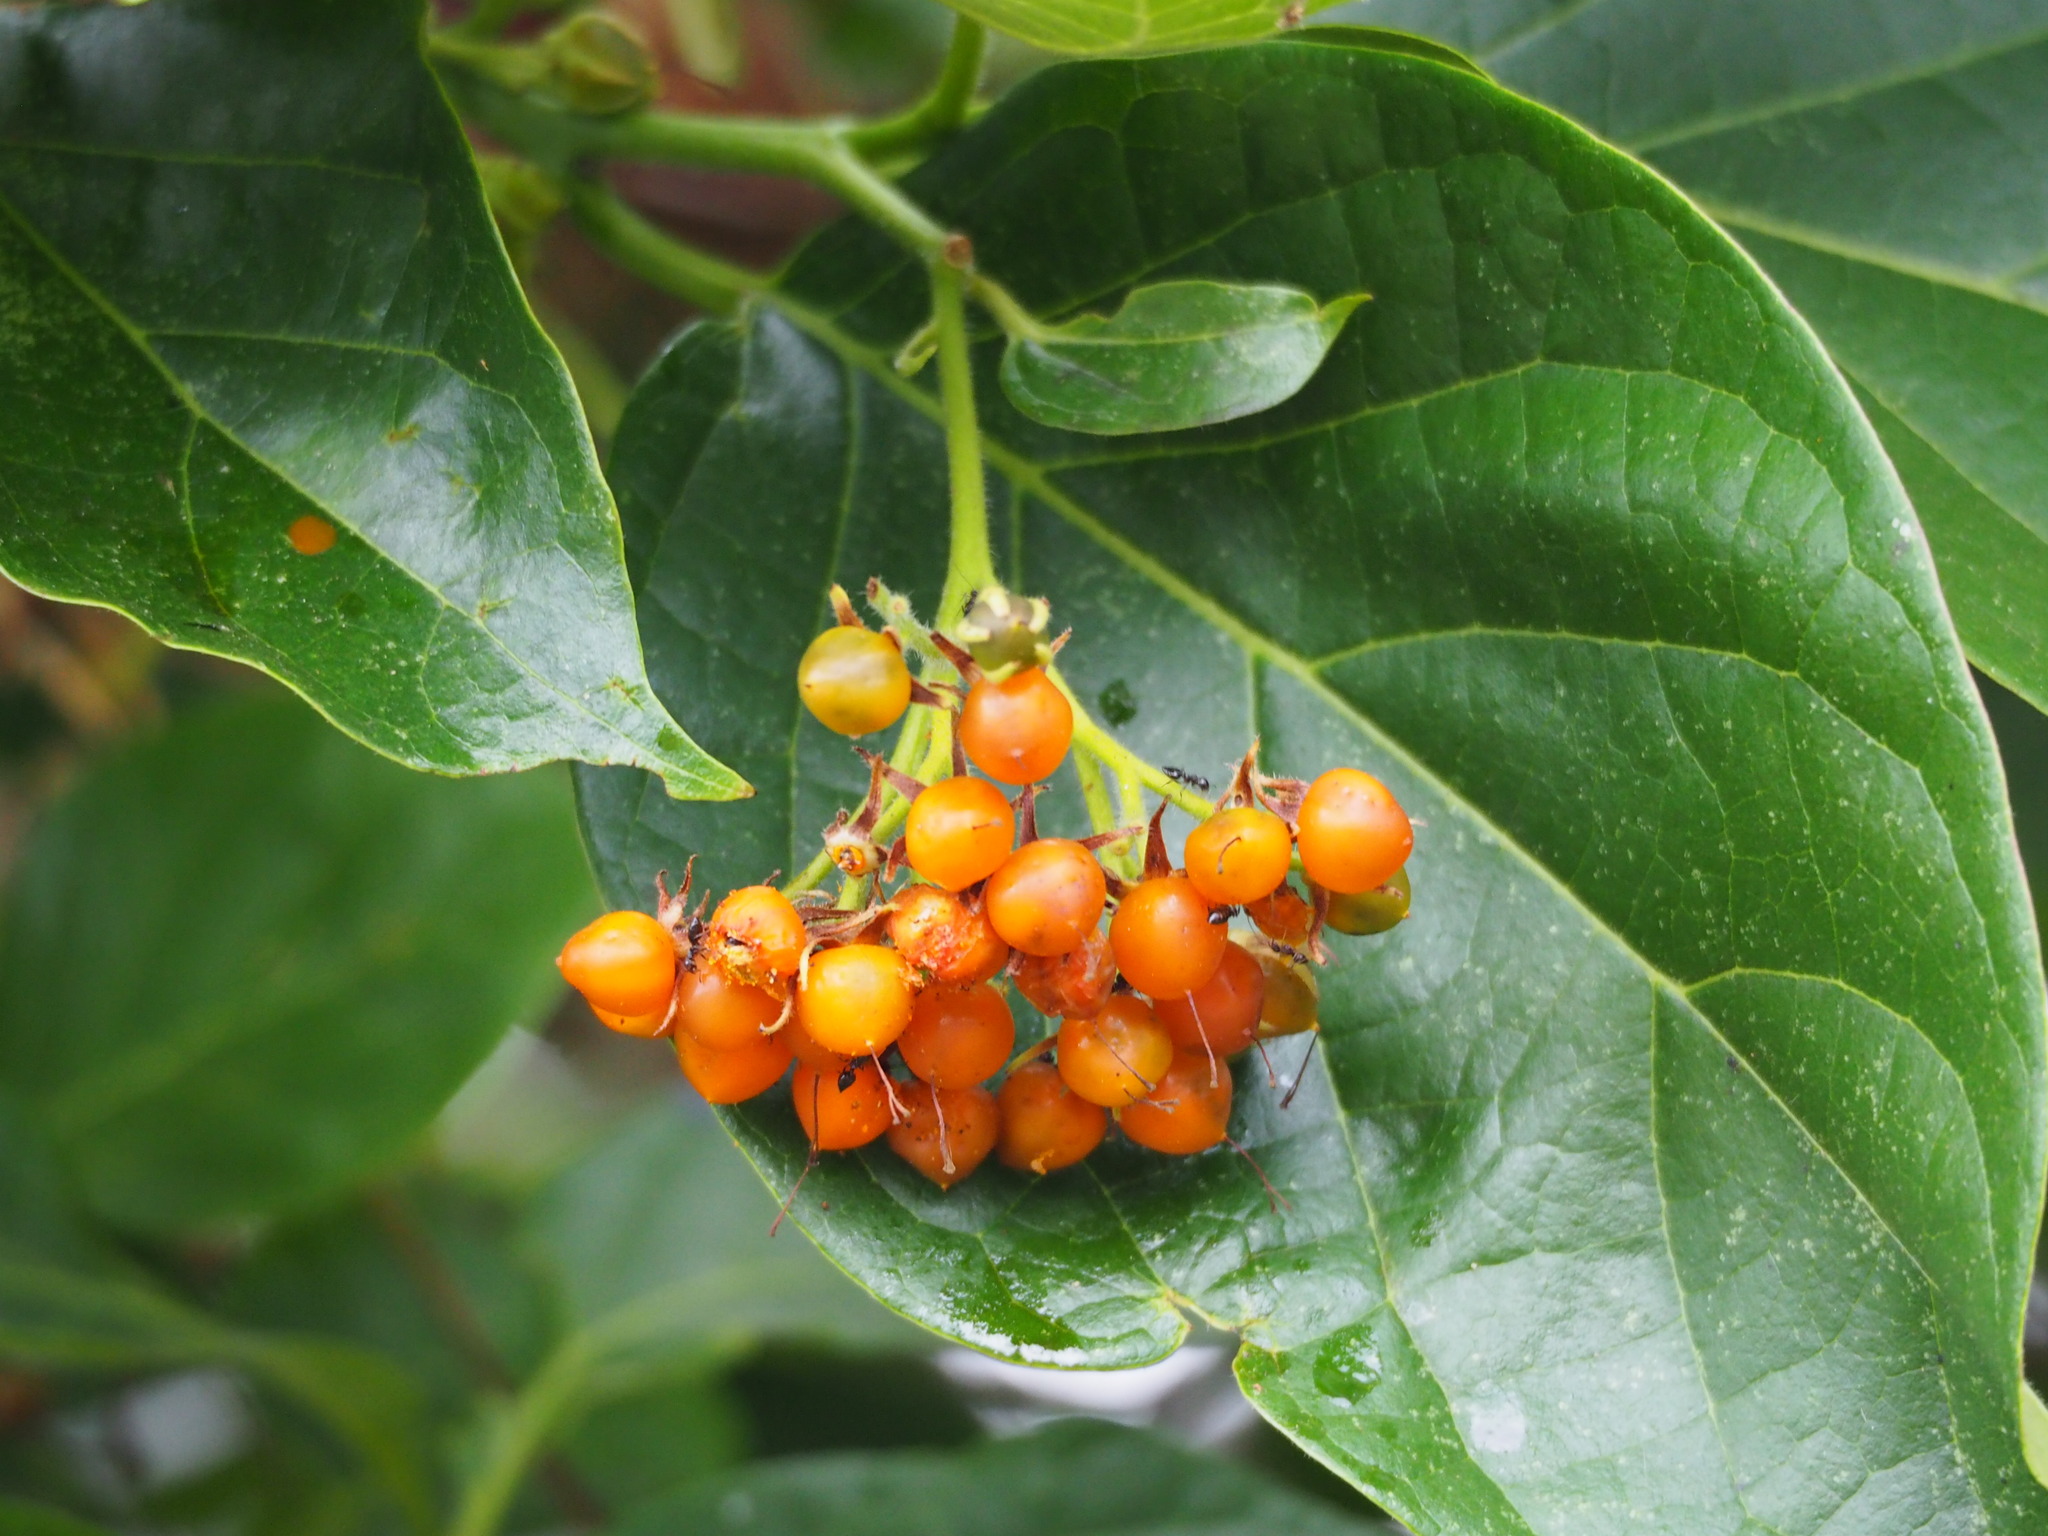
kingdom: Plantae
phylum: Tracheophyta
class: Magnoliopsida
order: Boraginales
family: Ehretiaceae
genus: Ehretia
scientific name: Ehretia resinosa
